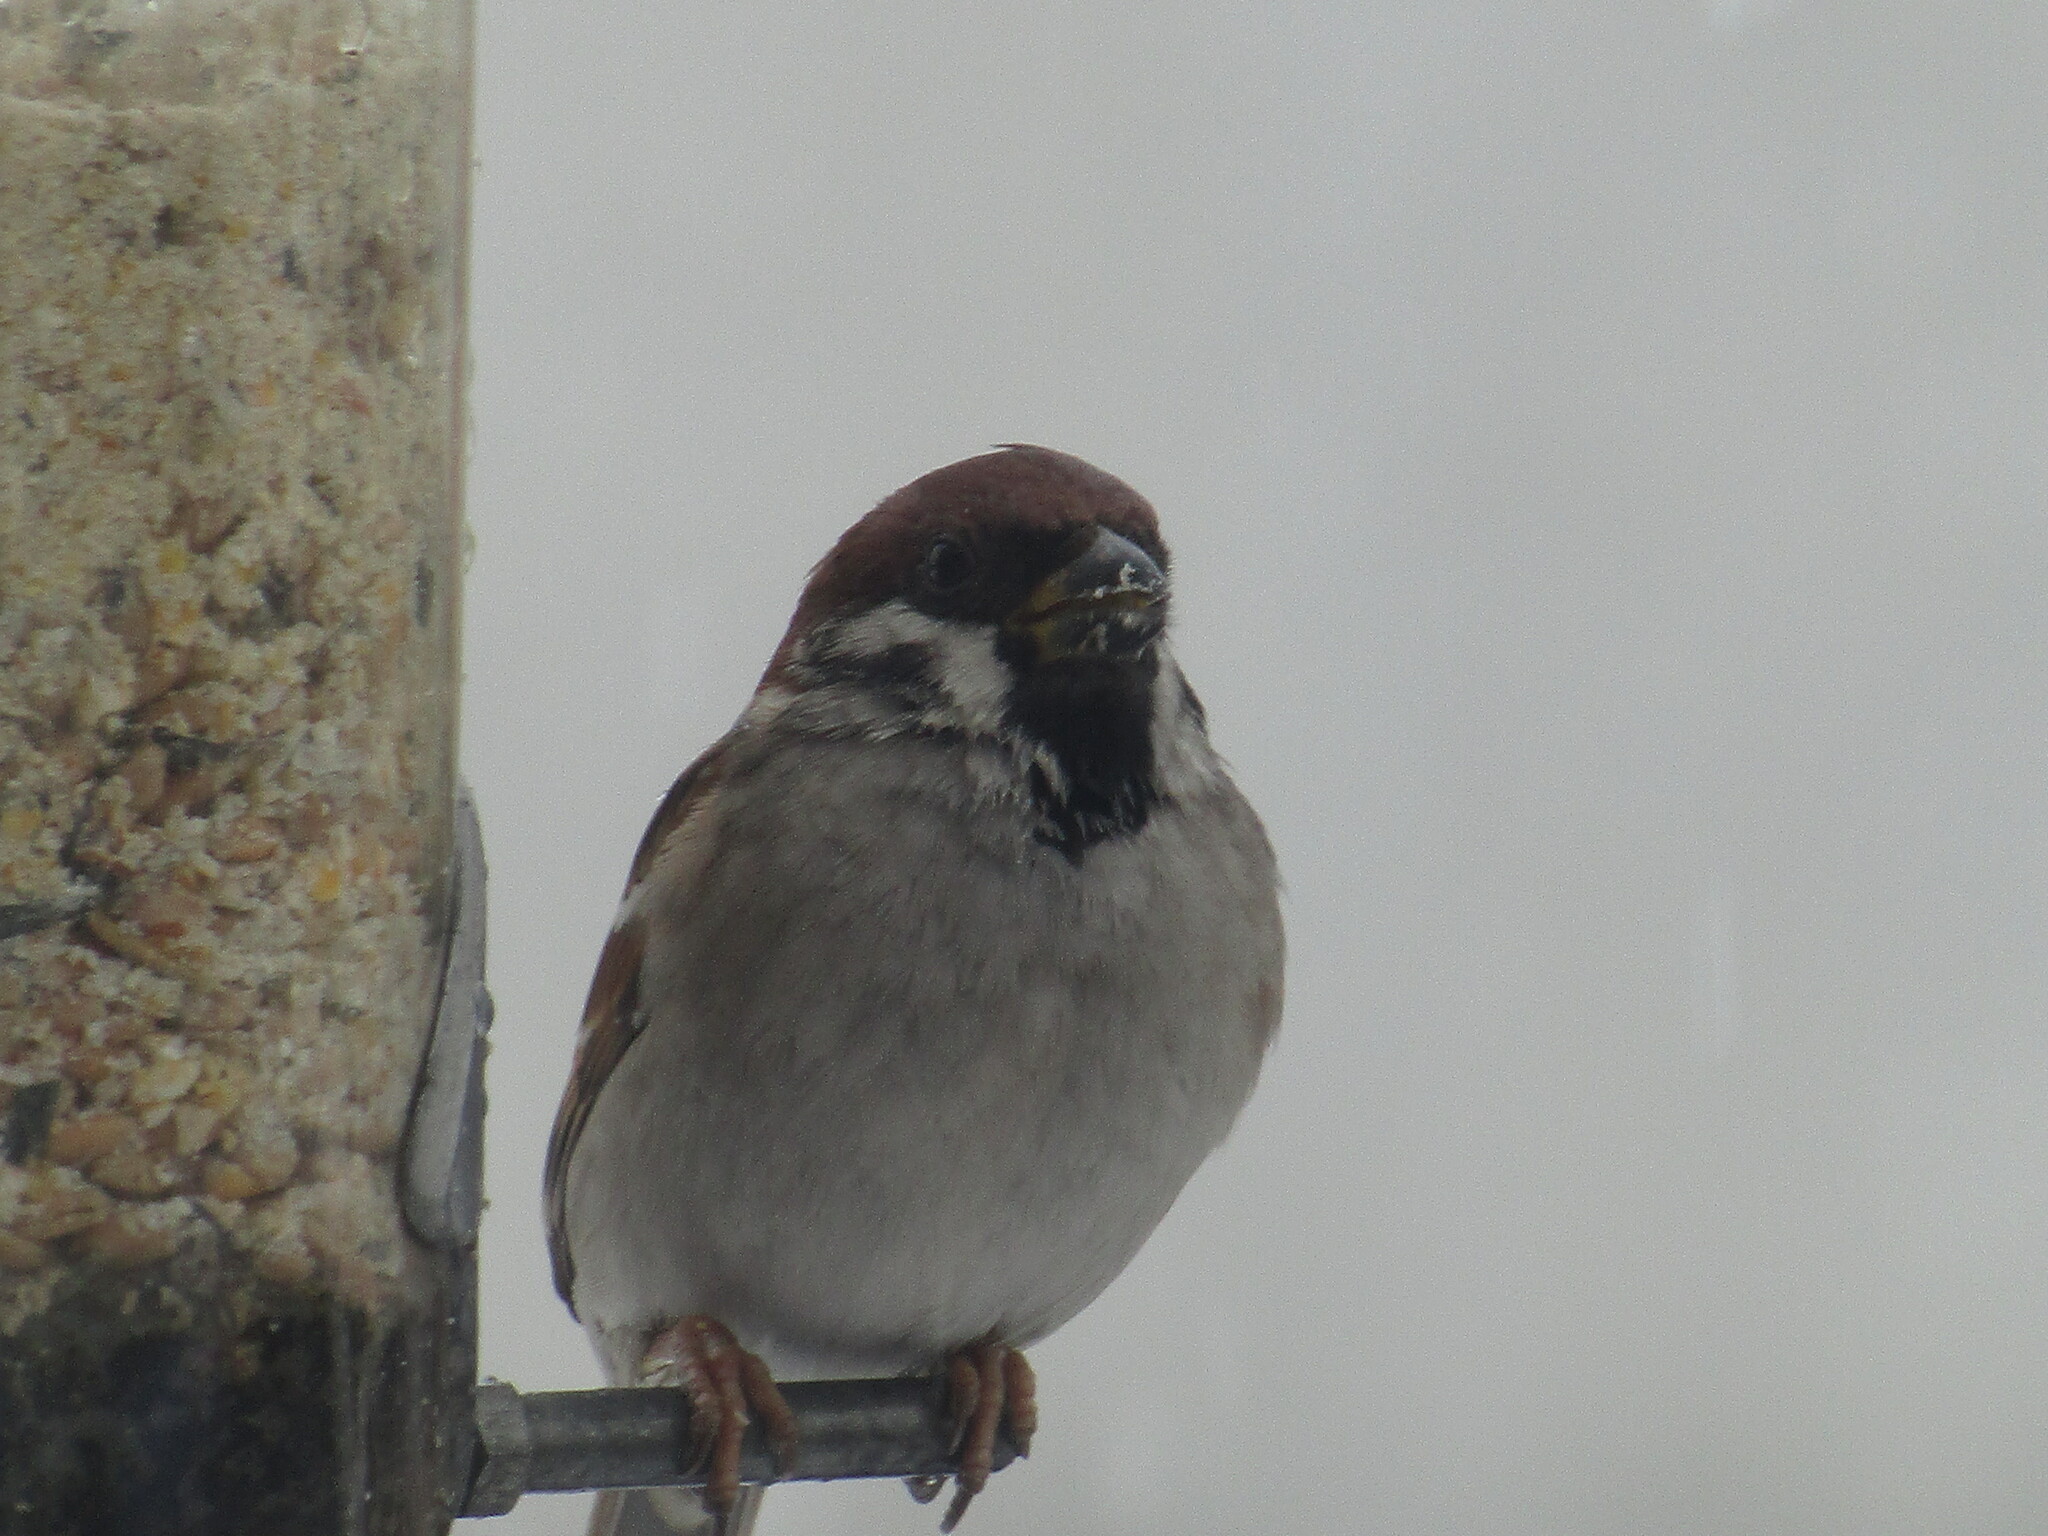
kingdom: Animalia
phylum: Chordata
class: Aves
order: Passeriformes
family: Passeridae
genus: Passer
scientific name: Passer montanus
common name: Eurasian tree sparrow
